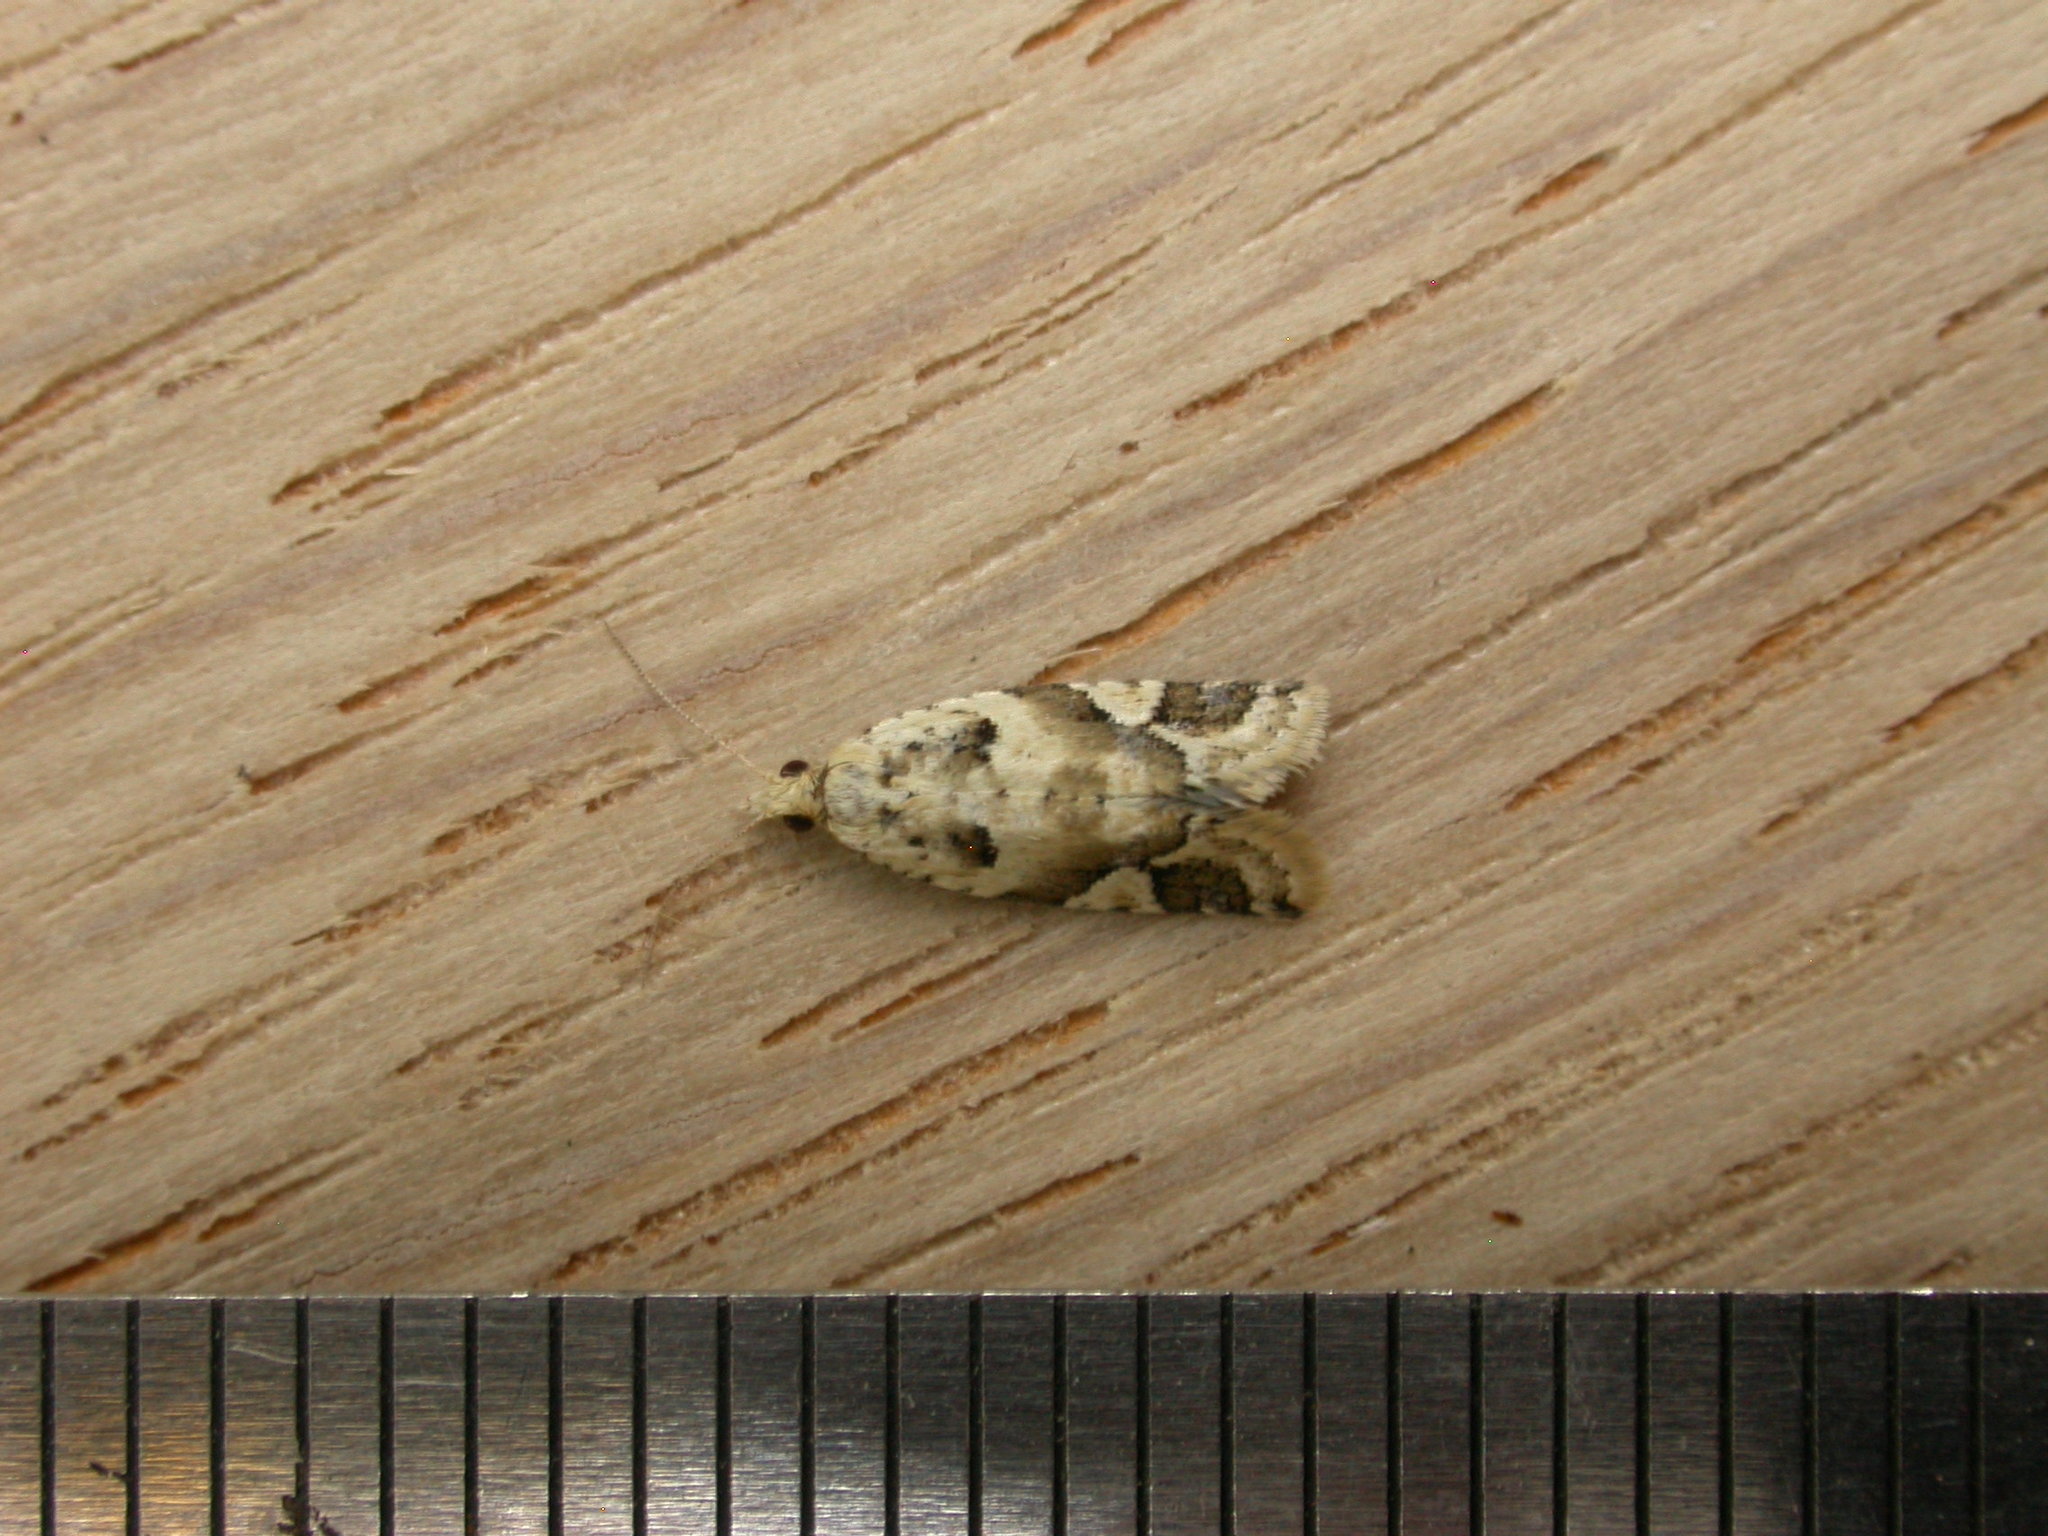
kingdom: Animalia
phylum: Arthropoda
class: Insecta
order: Lepidoptera
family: Tortricidae
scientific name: Tortricidae
